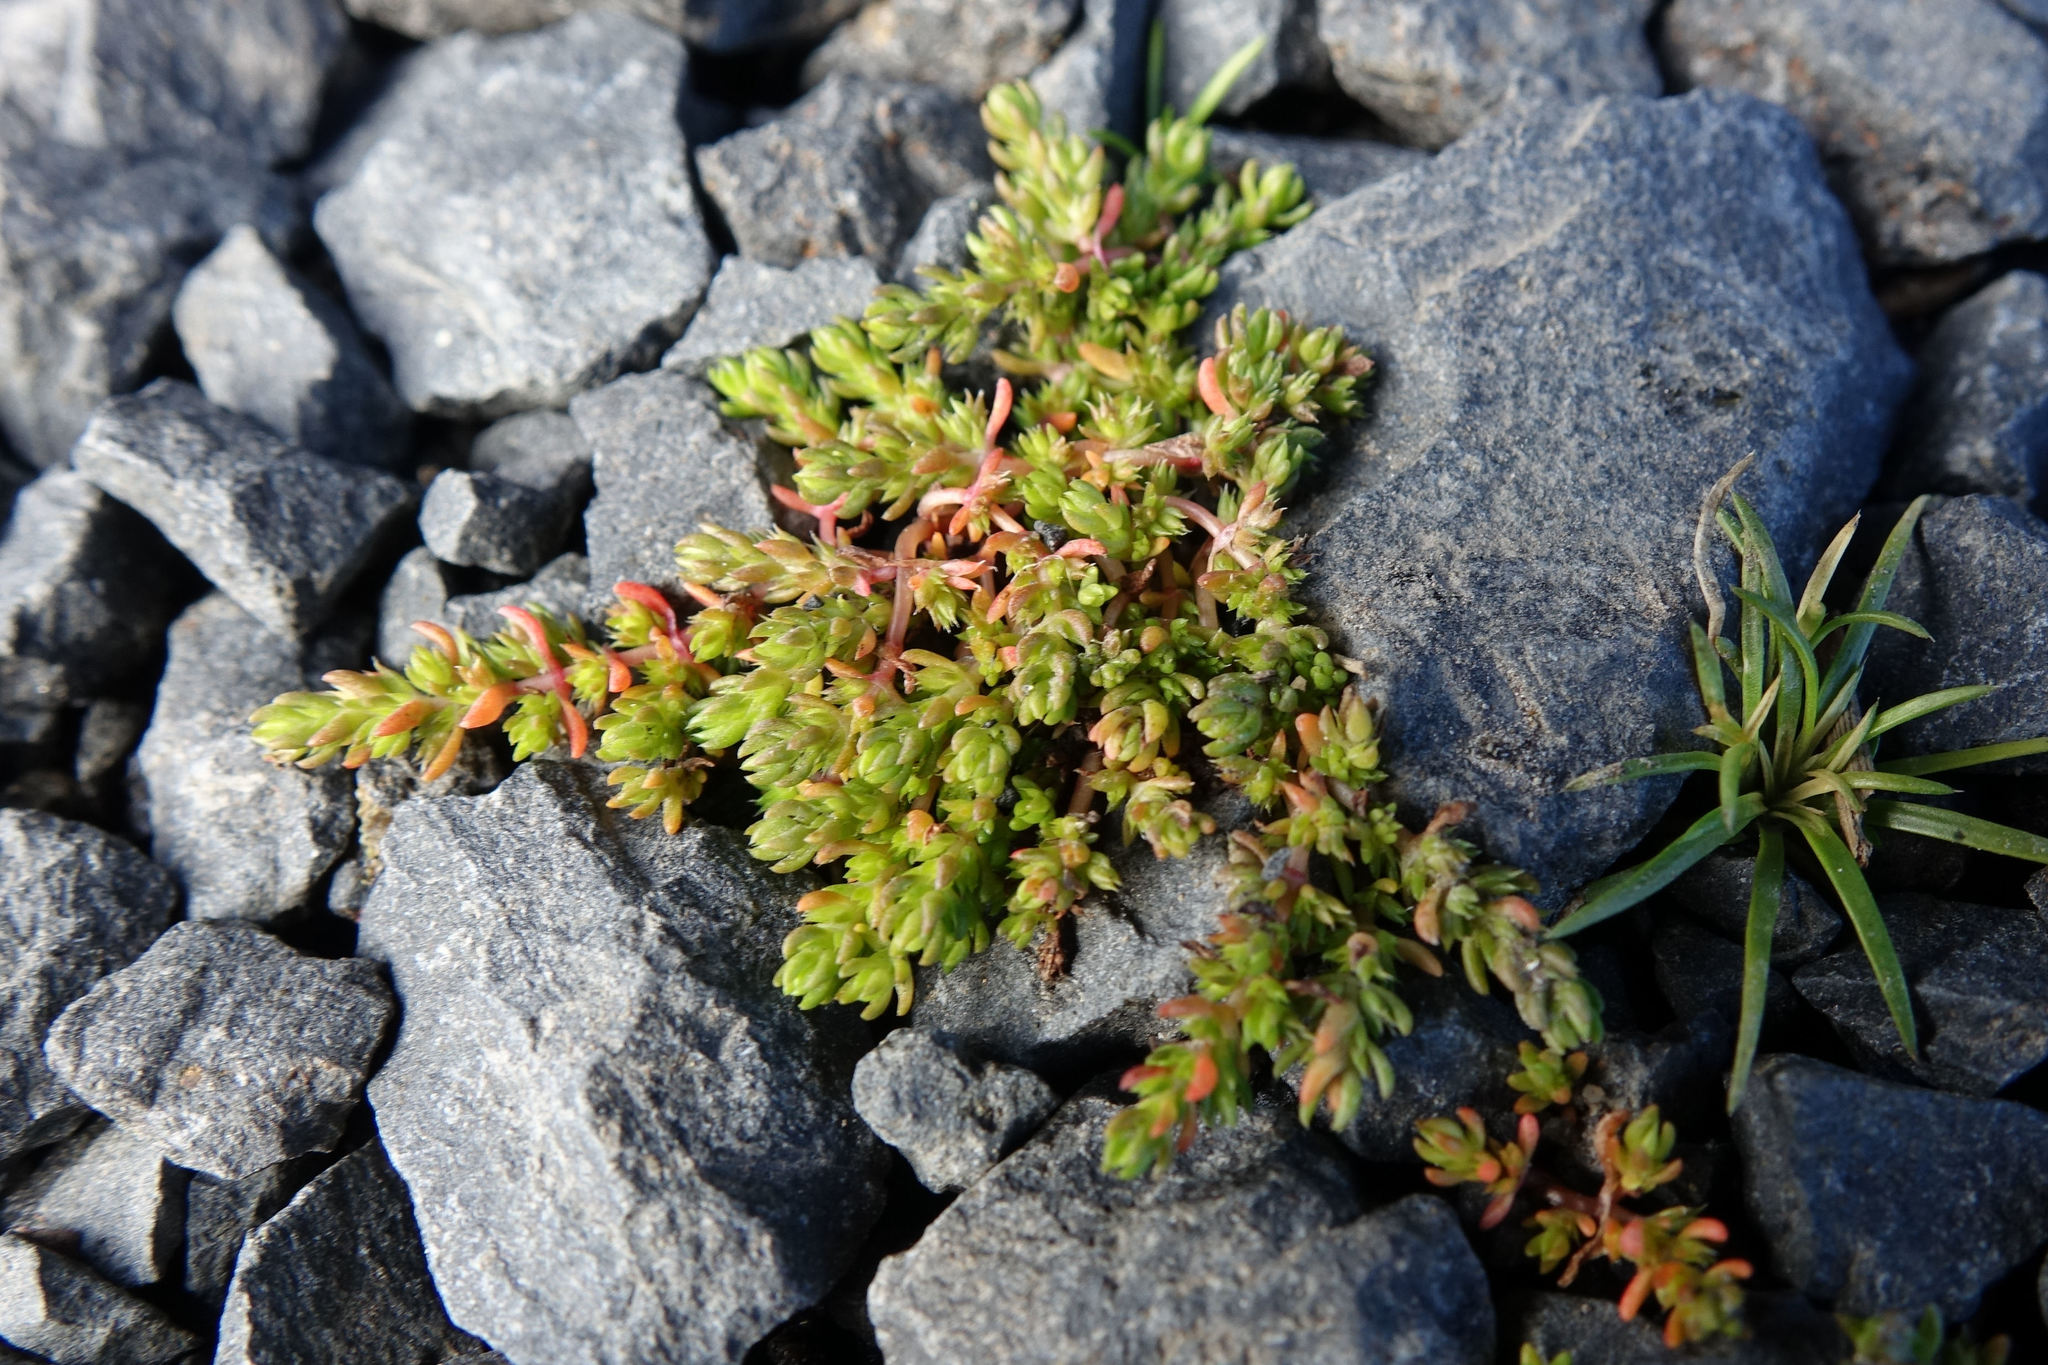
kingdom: Plantae
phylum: Tracheophyta
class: Magnoliopsida
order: Saxifragales
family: Crassulaceae
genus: Crassula
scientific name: Crassula alata
